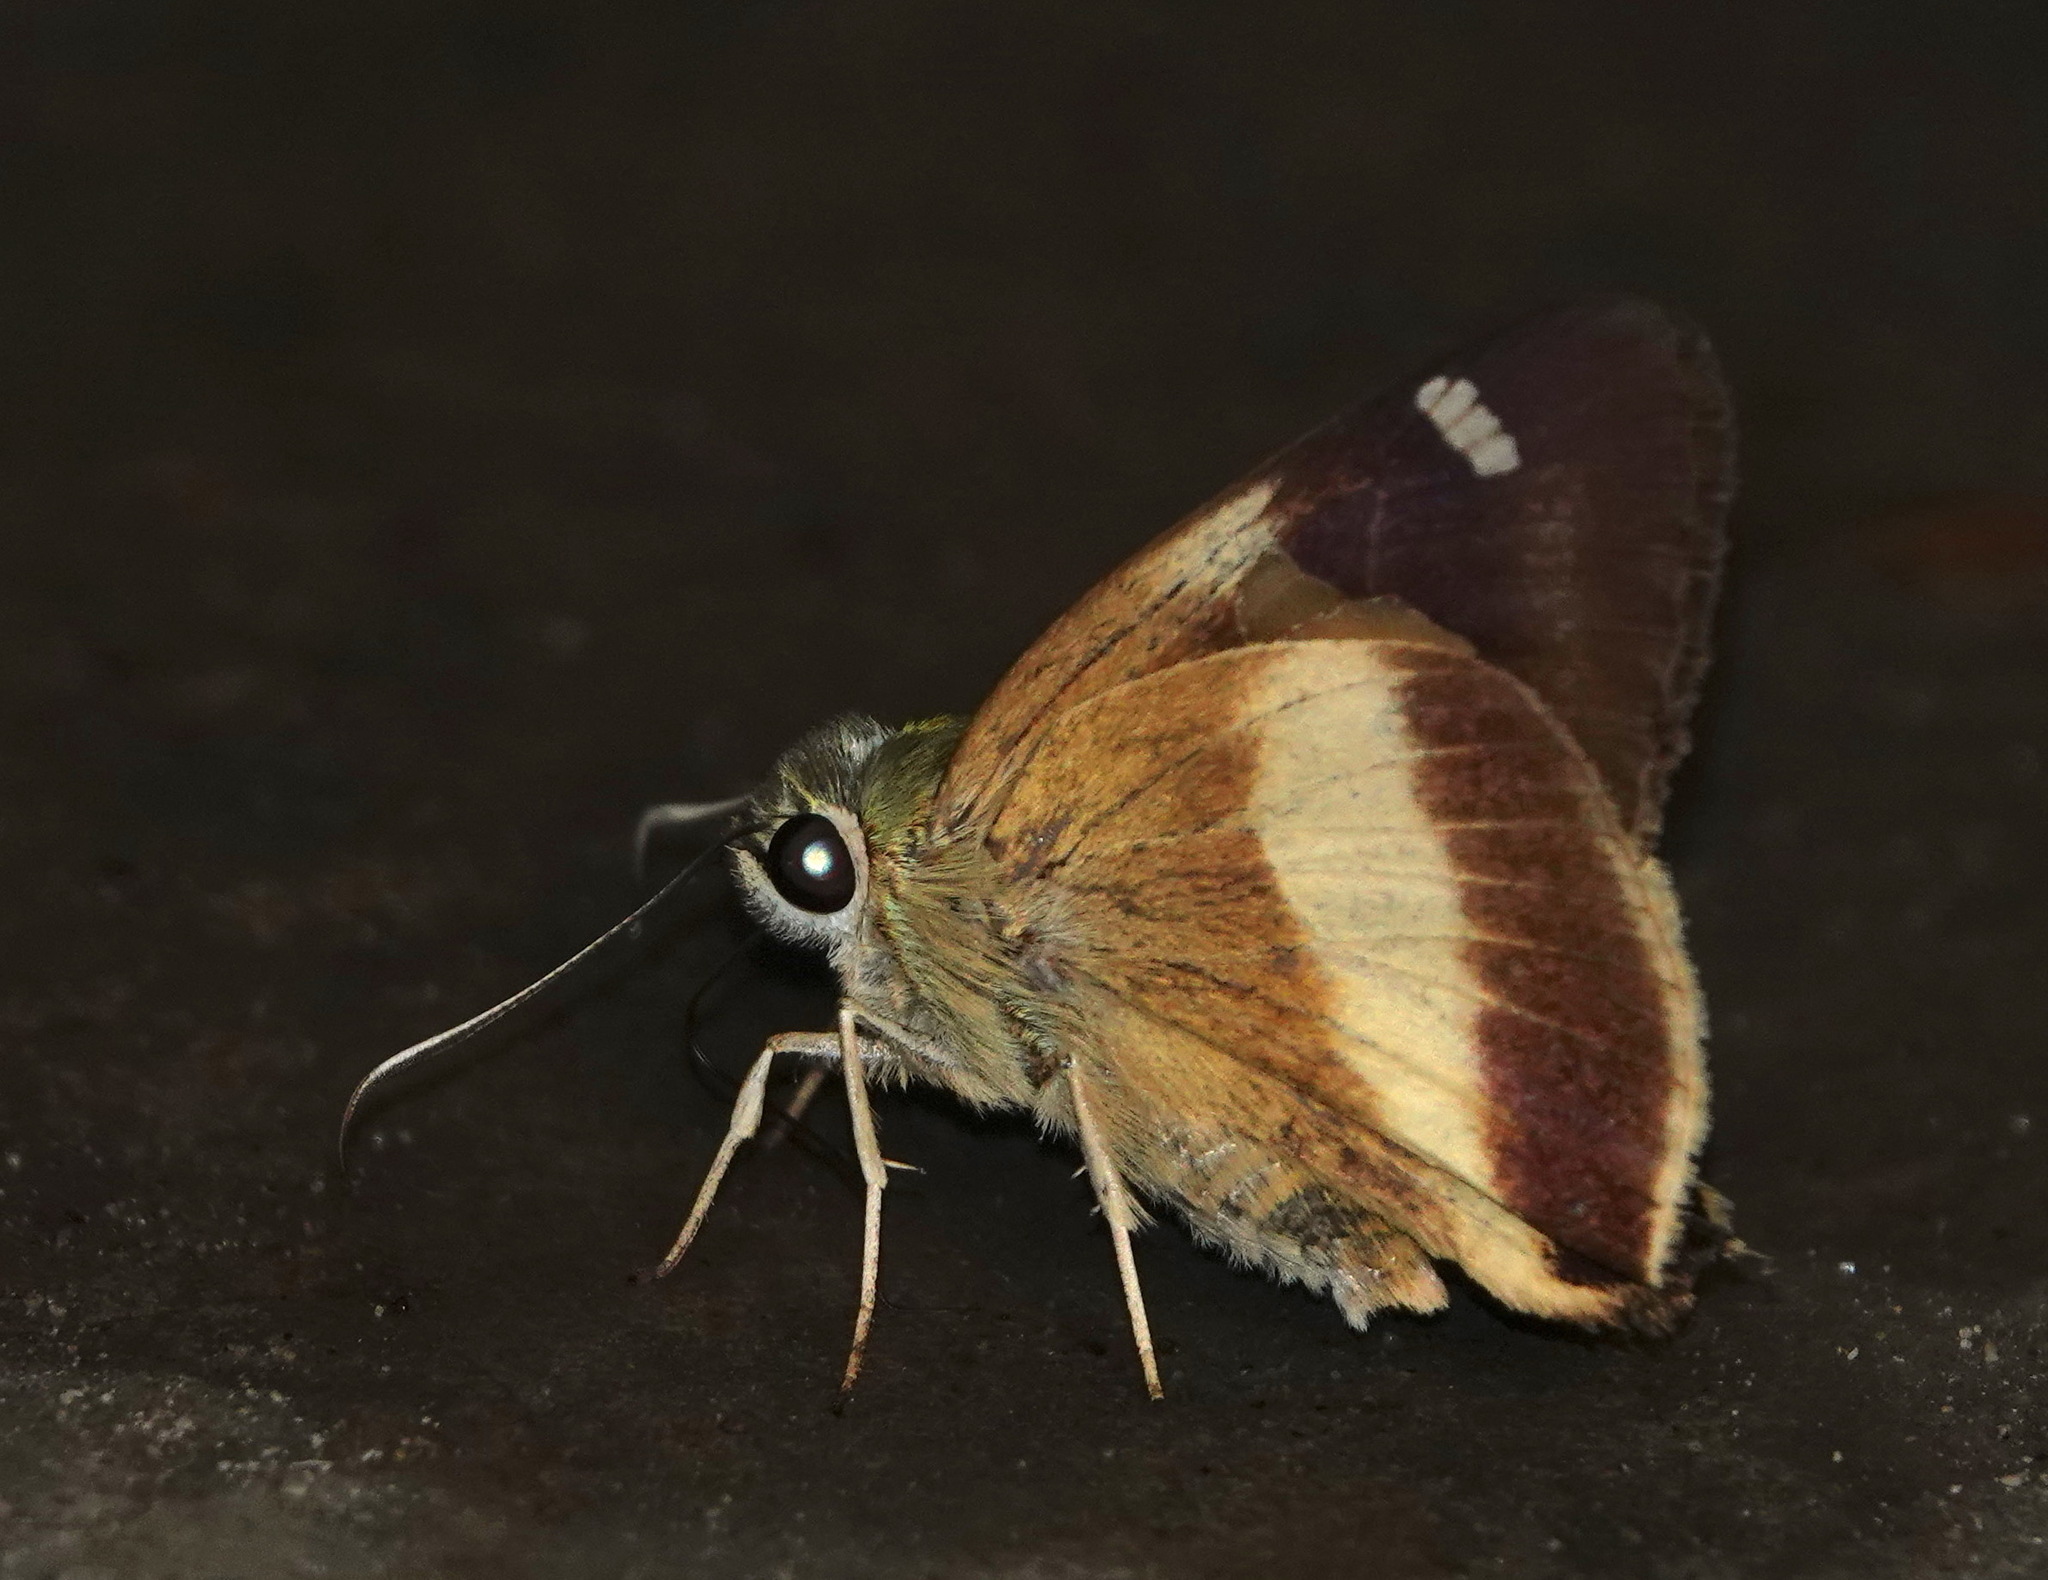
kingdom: Animalia
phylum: Arthropoda
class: Insecta
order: Lepidoptera
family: Hesperiidae
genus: Hasora
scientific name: Hasora schoenherr
